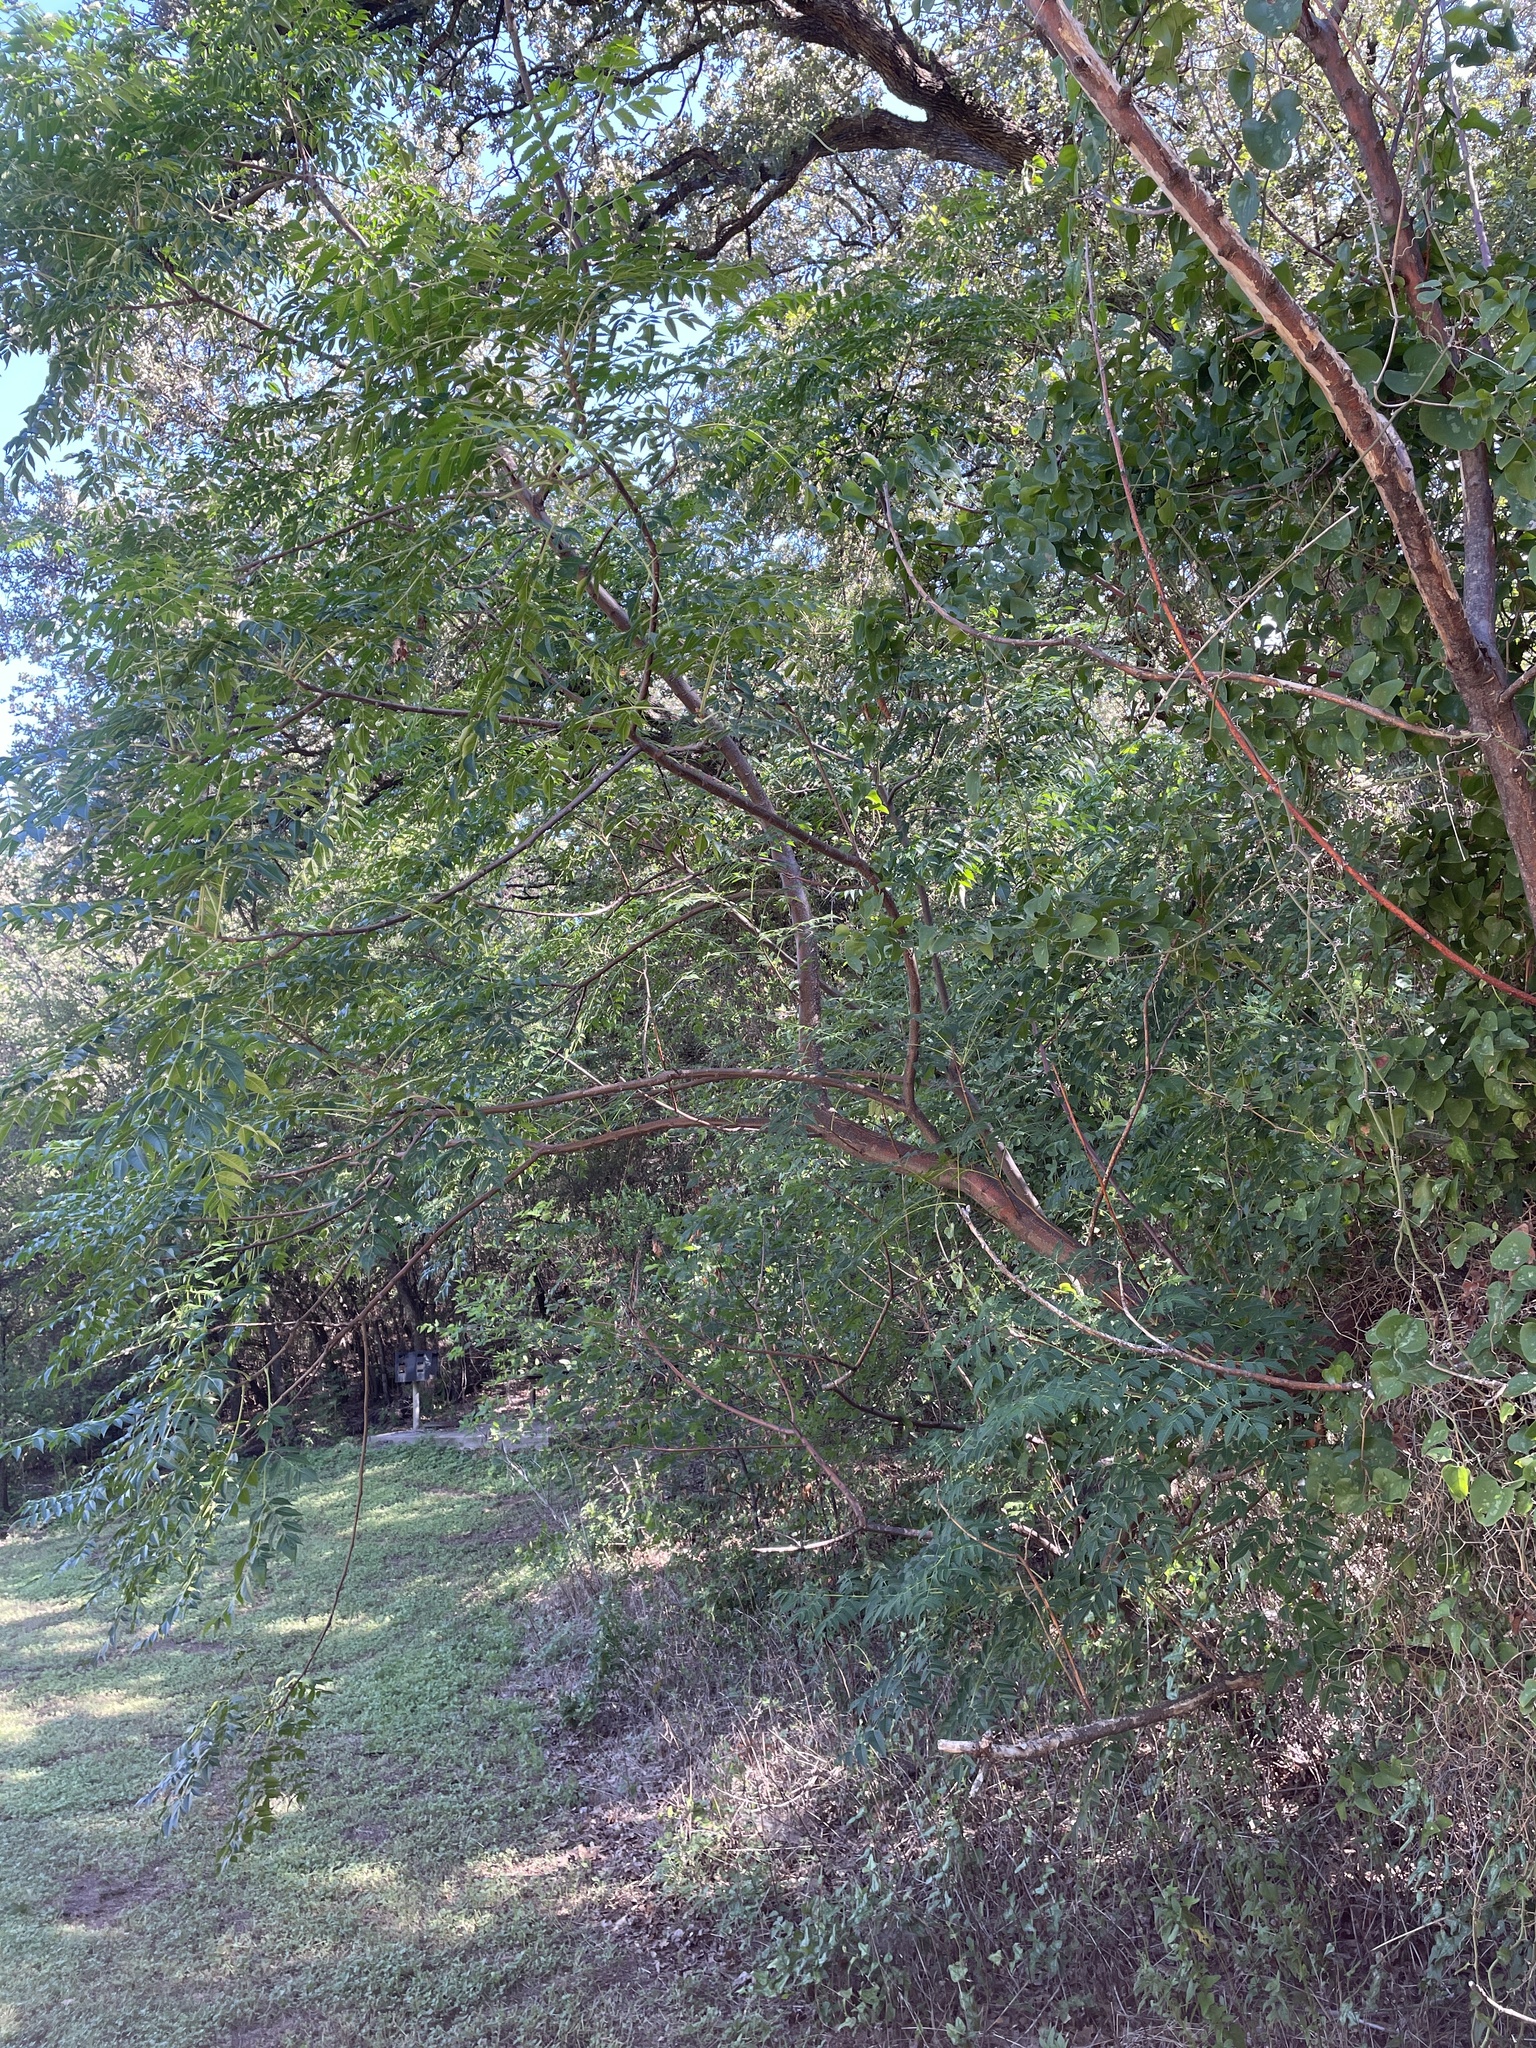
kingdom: Plantae
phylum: Tracheophyta
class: Magnoliopsida
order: Sapindales
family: Meliaceae
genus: Melia
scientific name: Melia azedarach
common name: Chinaberrytree
